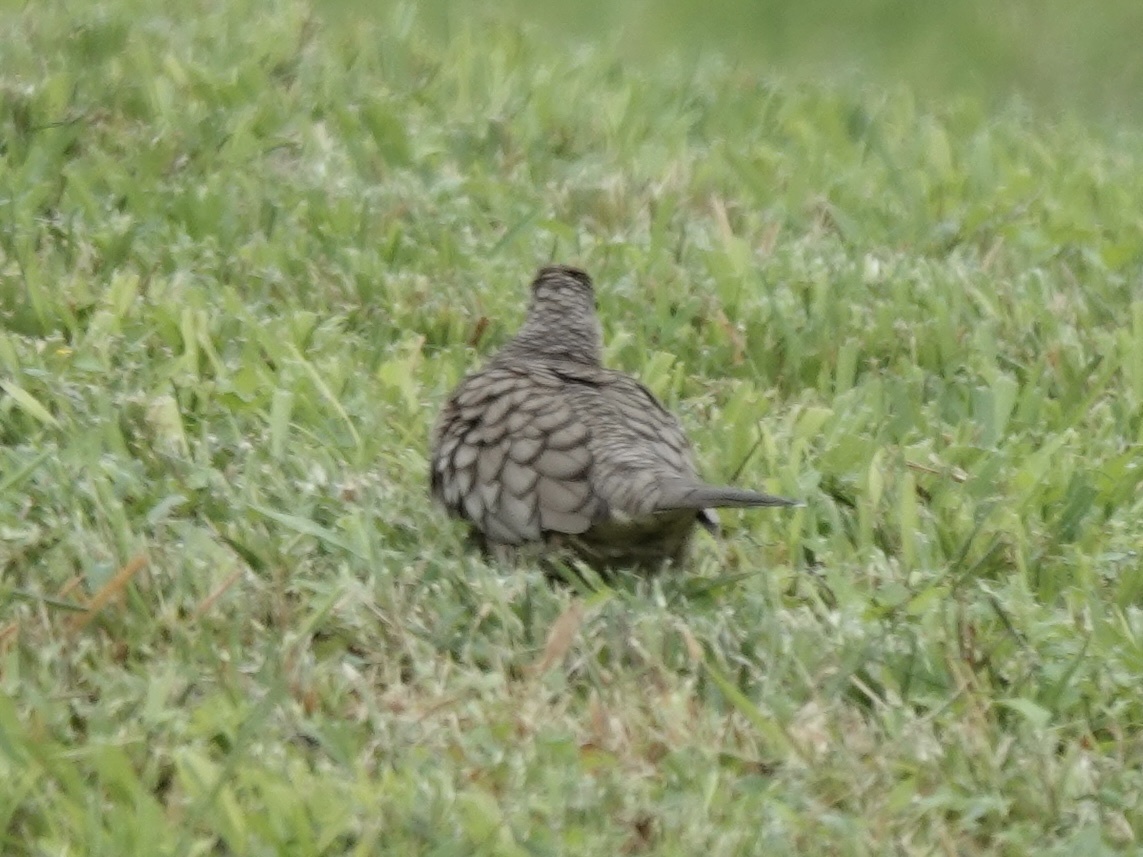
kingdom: Animalia
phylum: Chordata
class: Aves
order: Columbiformes
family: Columbidae
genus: Columbina
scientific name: Columbina inca
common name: Inca dove
